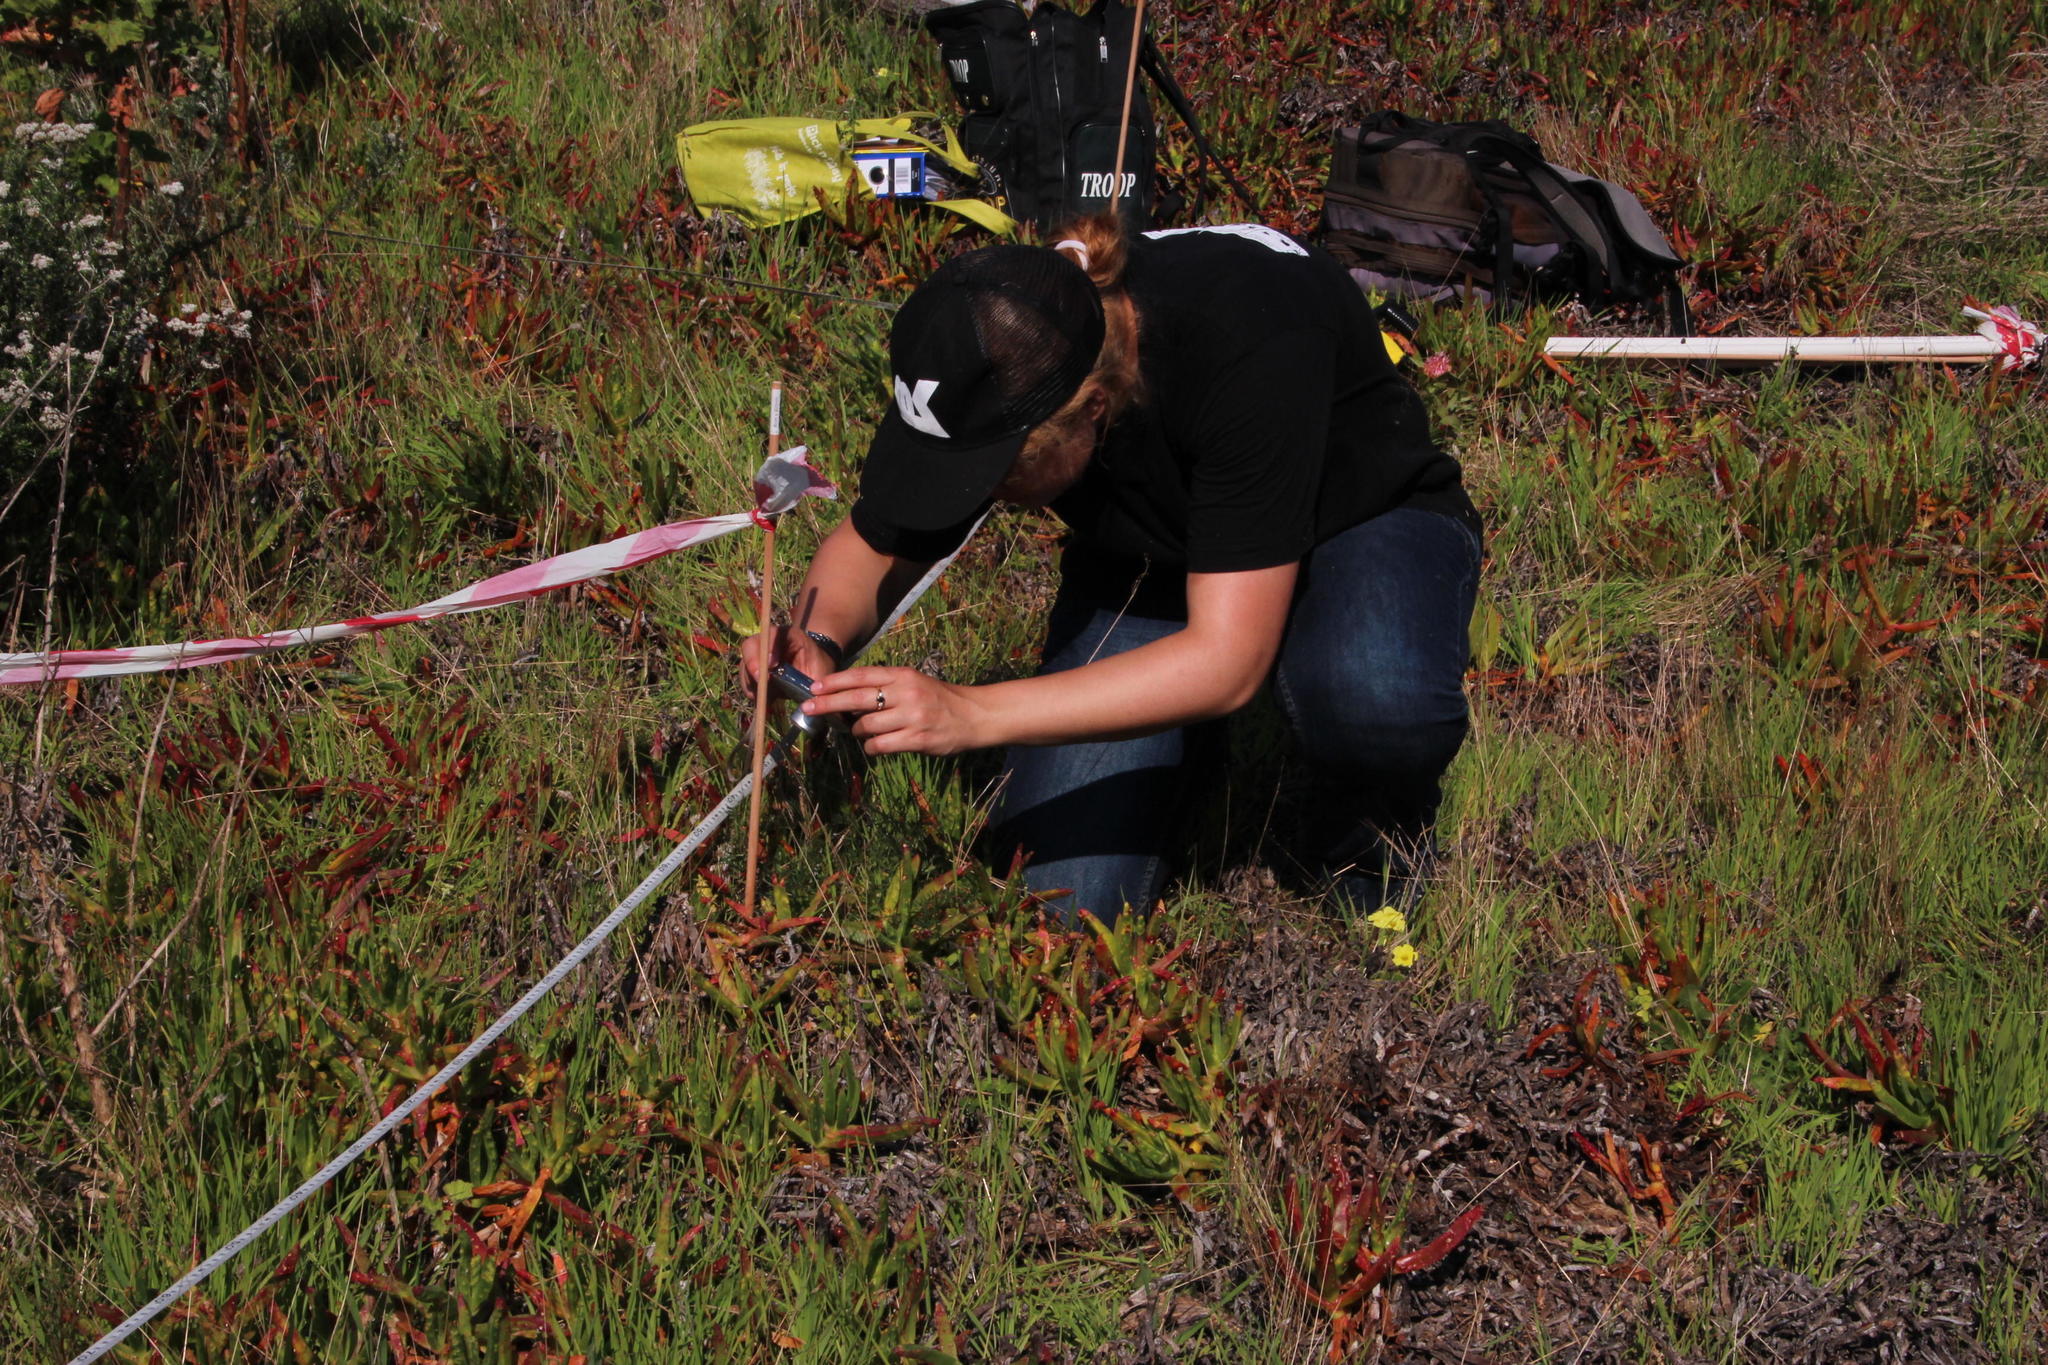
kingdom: Plantae
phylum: Tracheophyta
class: Magnoliopsida
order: Caryophyllales
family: Aizoaceae
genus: Carpobrotus
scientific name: Carpobrotus edulis
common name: Hottentot-fig
